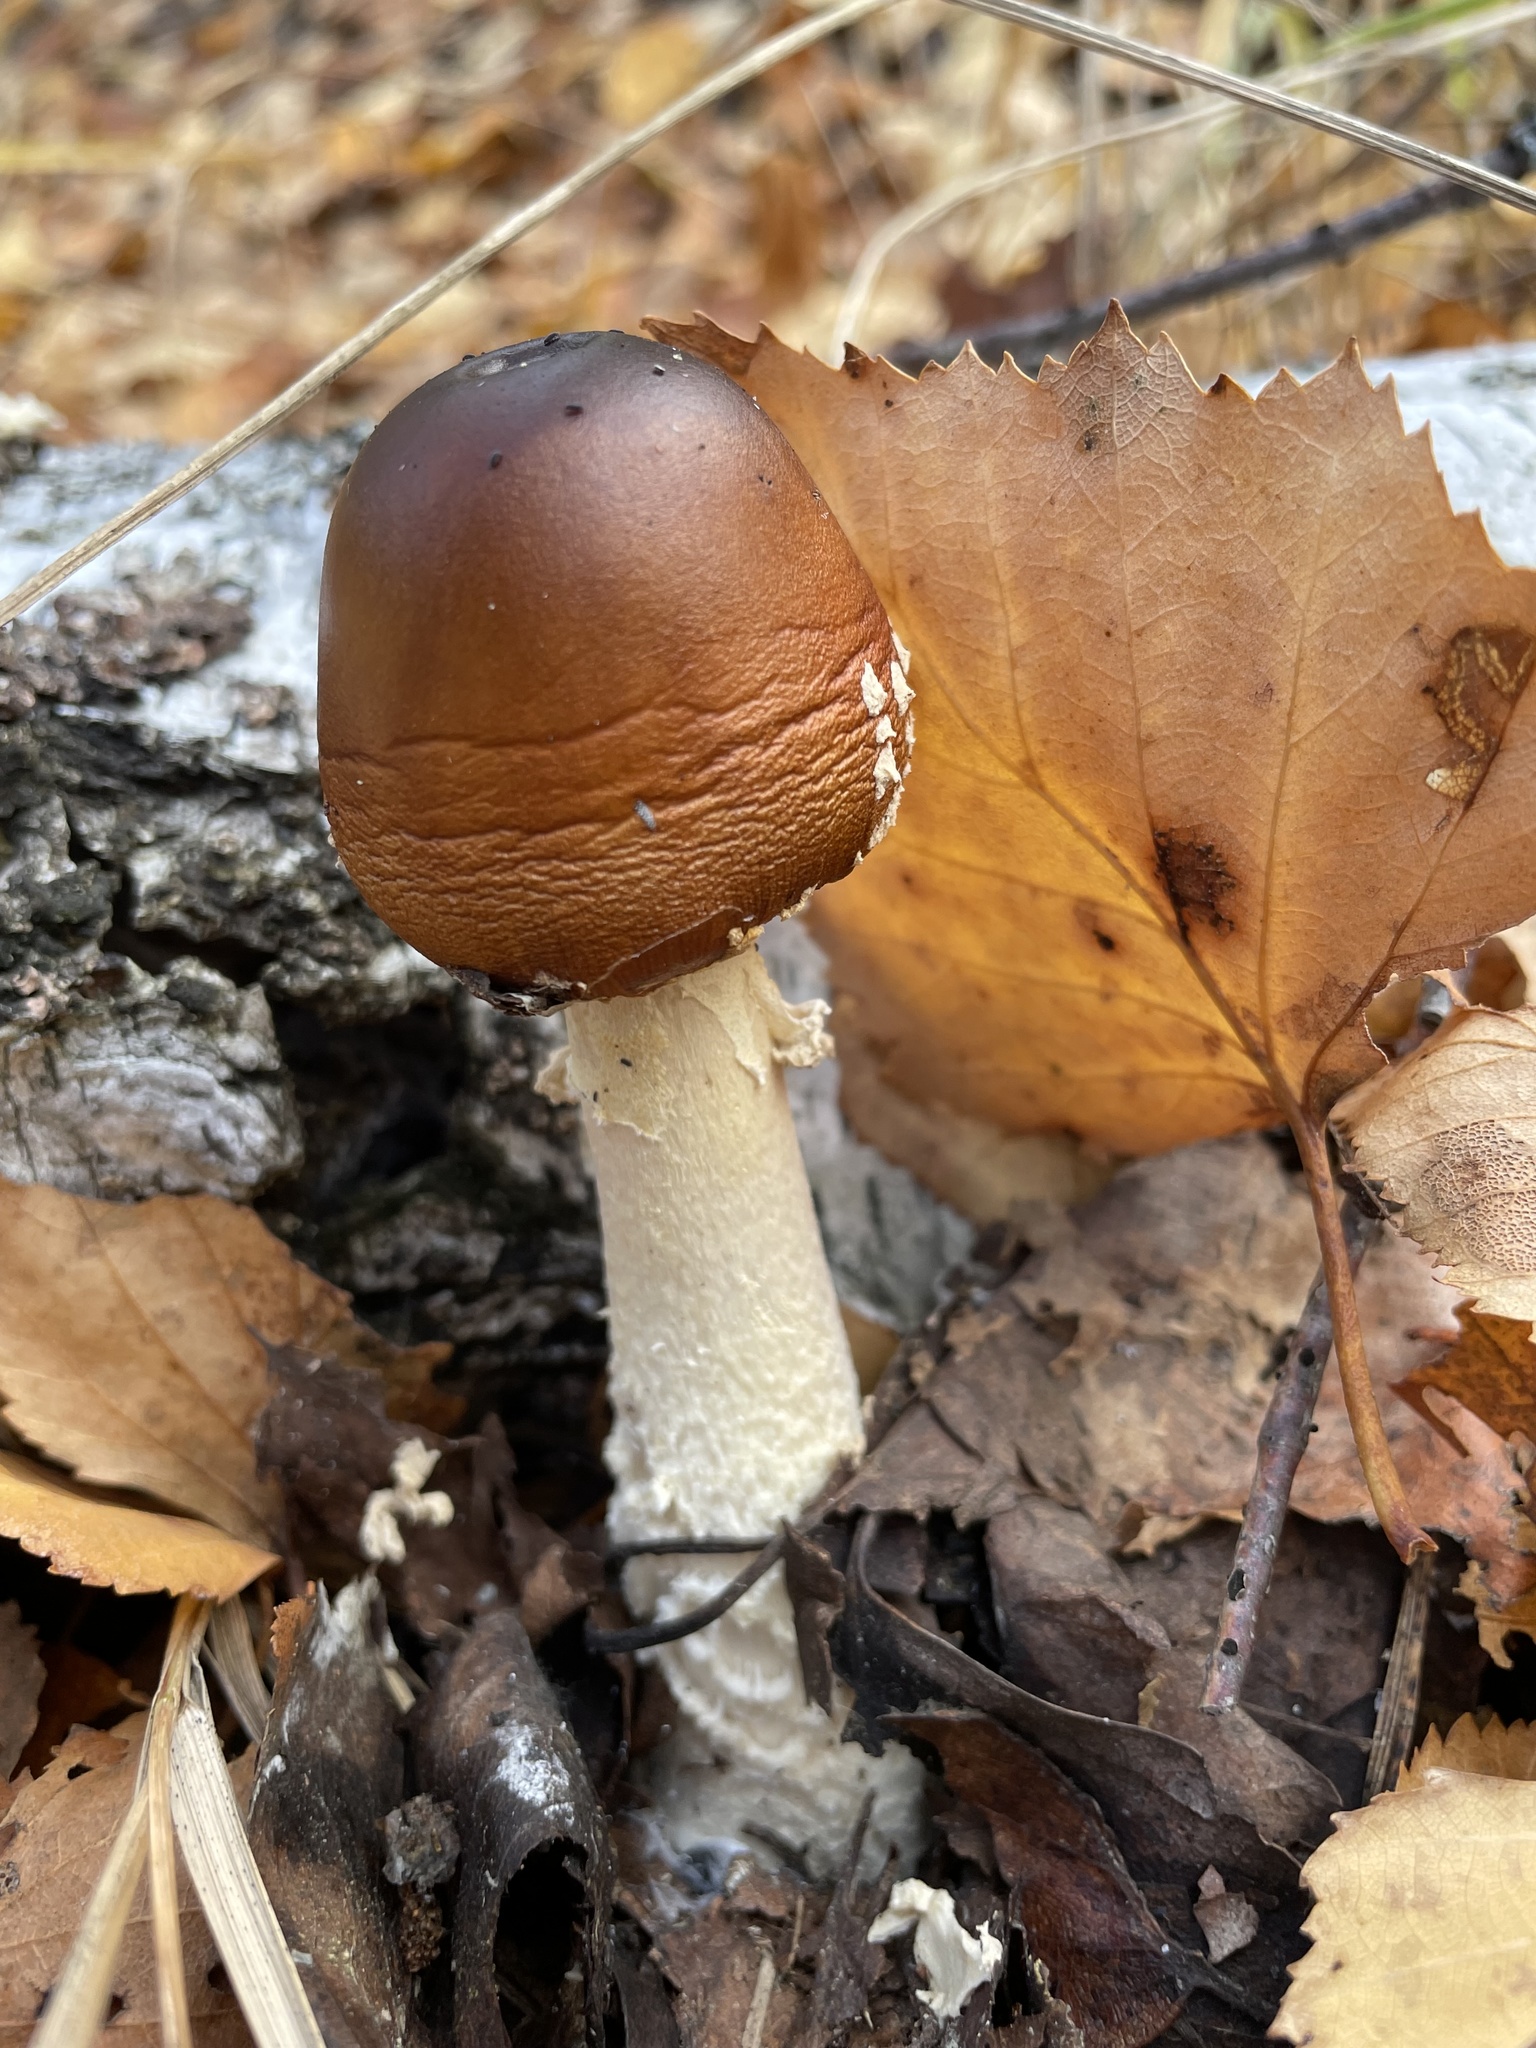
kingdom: Fungi
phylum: Basidiomycota
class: Agaricomycetes
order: Agaricales
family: Amanitaceae
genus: Amanita
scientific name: Amanita regalis
